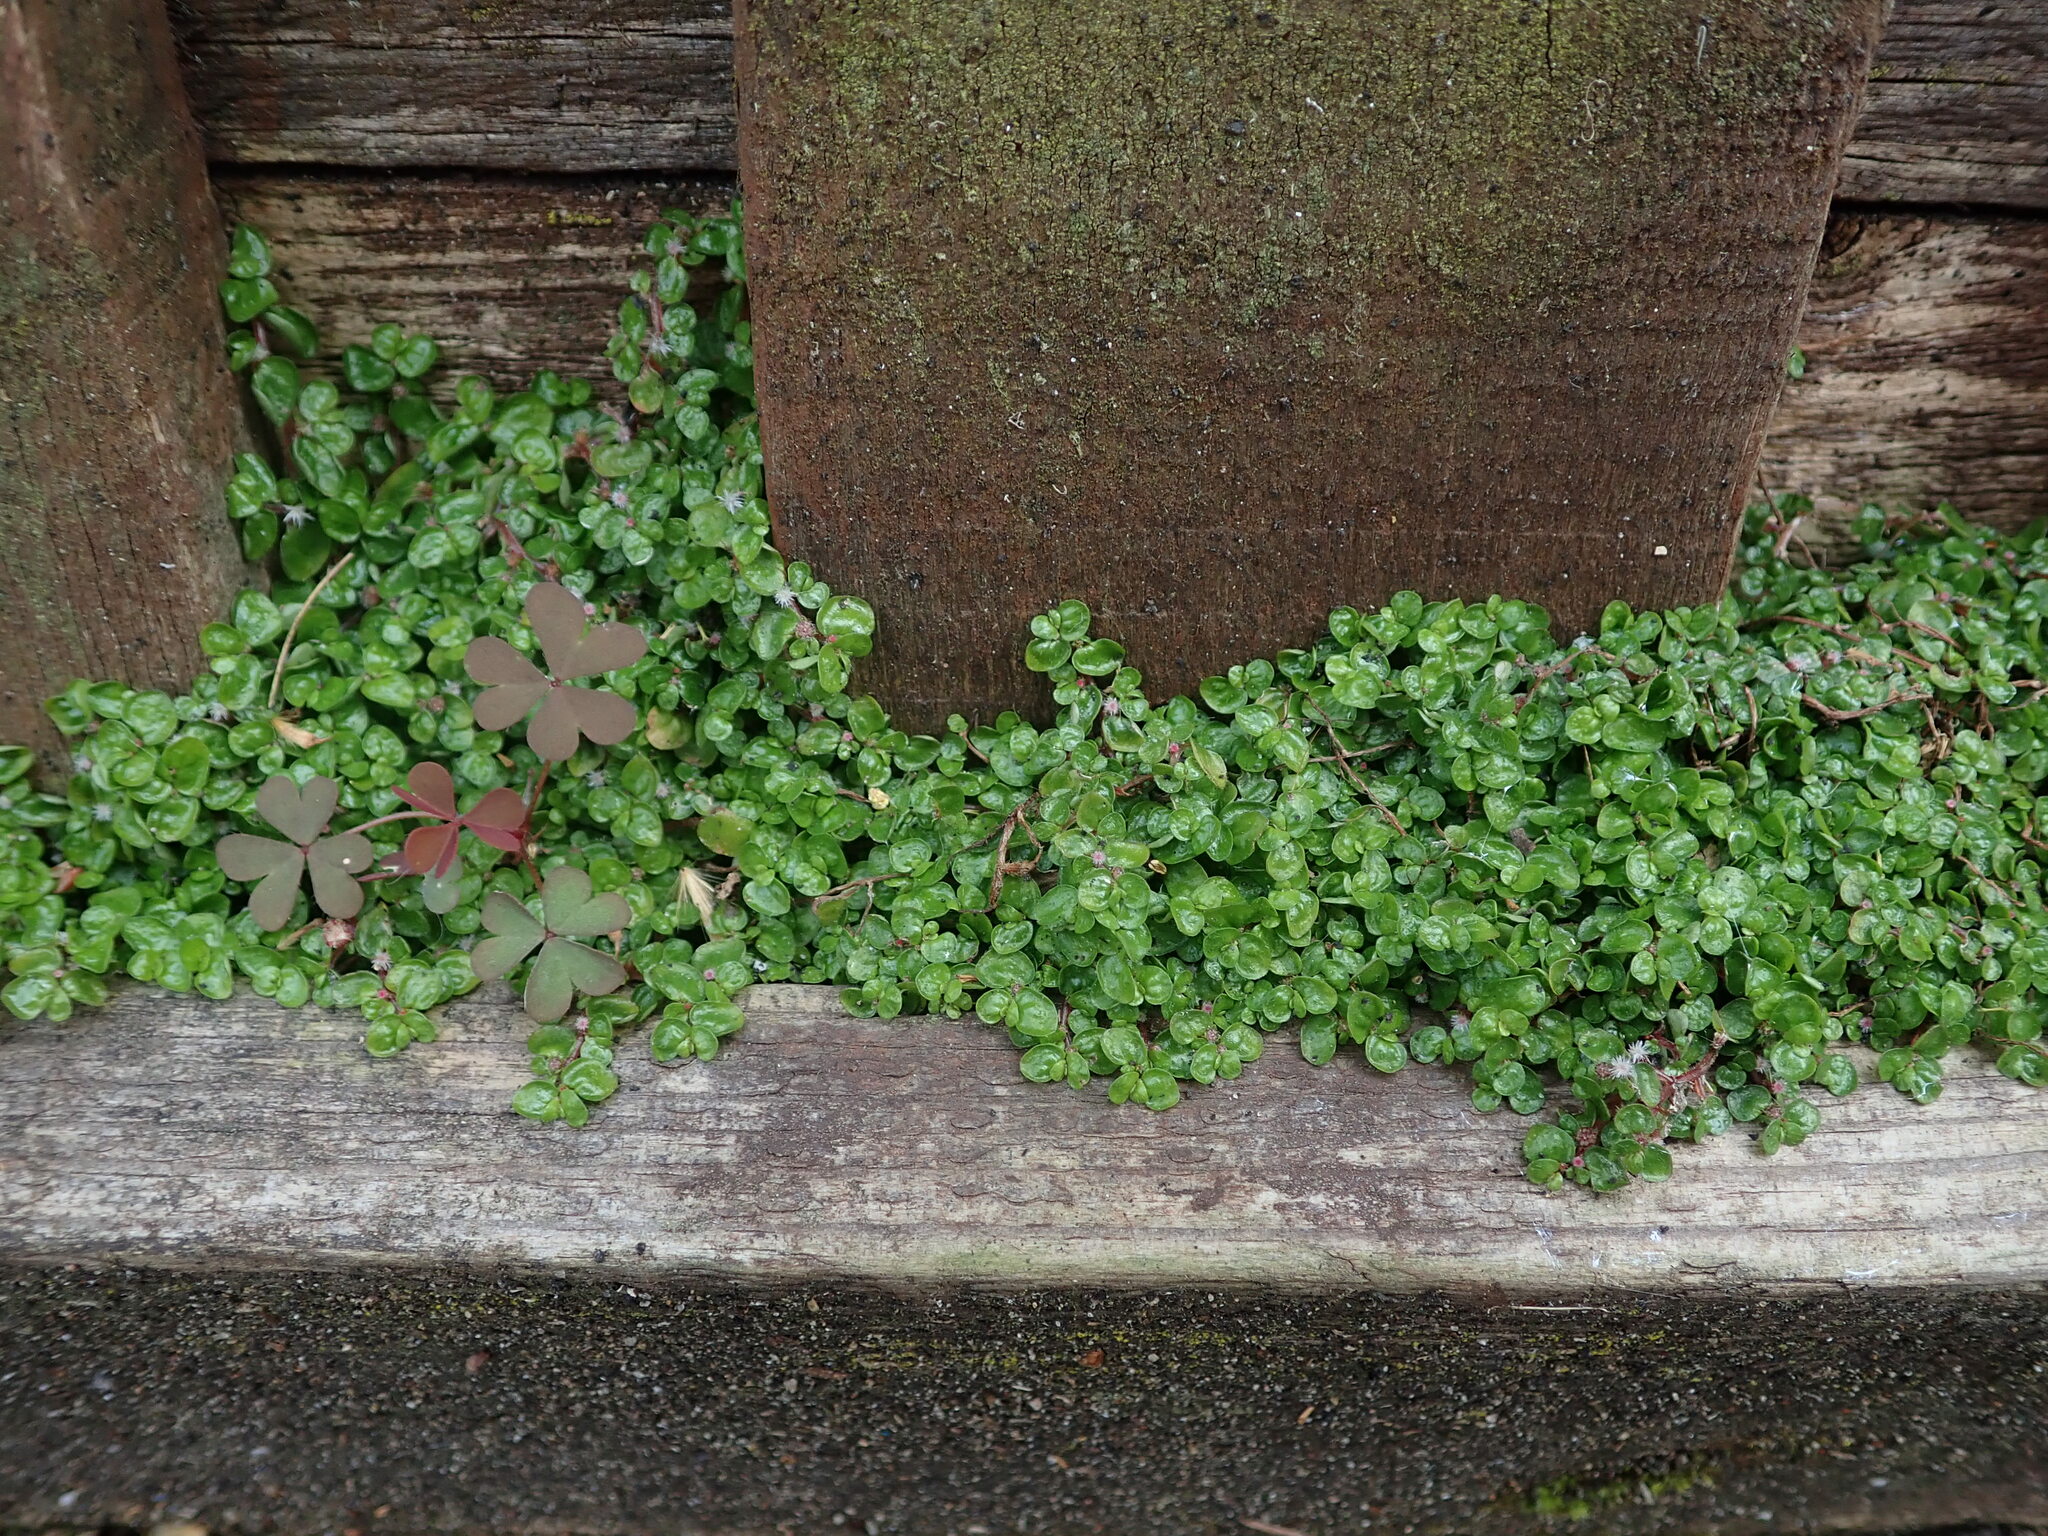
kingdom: Plantae
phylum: Tracheophyta
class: Magnoliopsida
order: Rosales
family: Urticaceae
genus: Soleirolia
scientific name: Soleirolia soleirolii
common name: Mind-your-own-business
